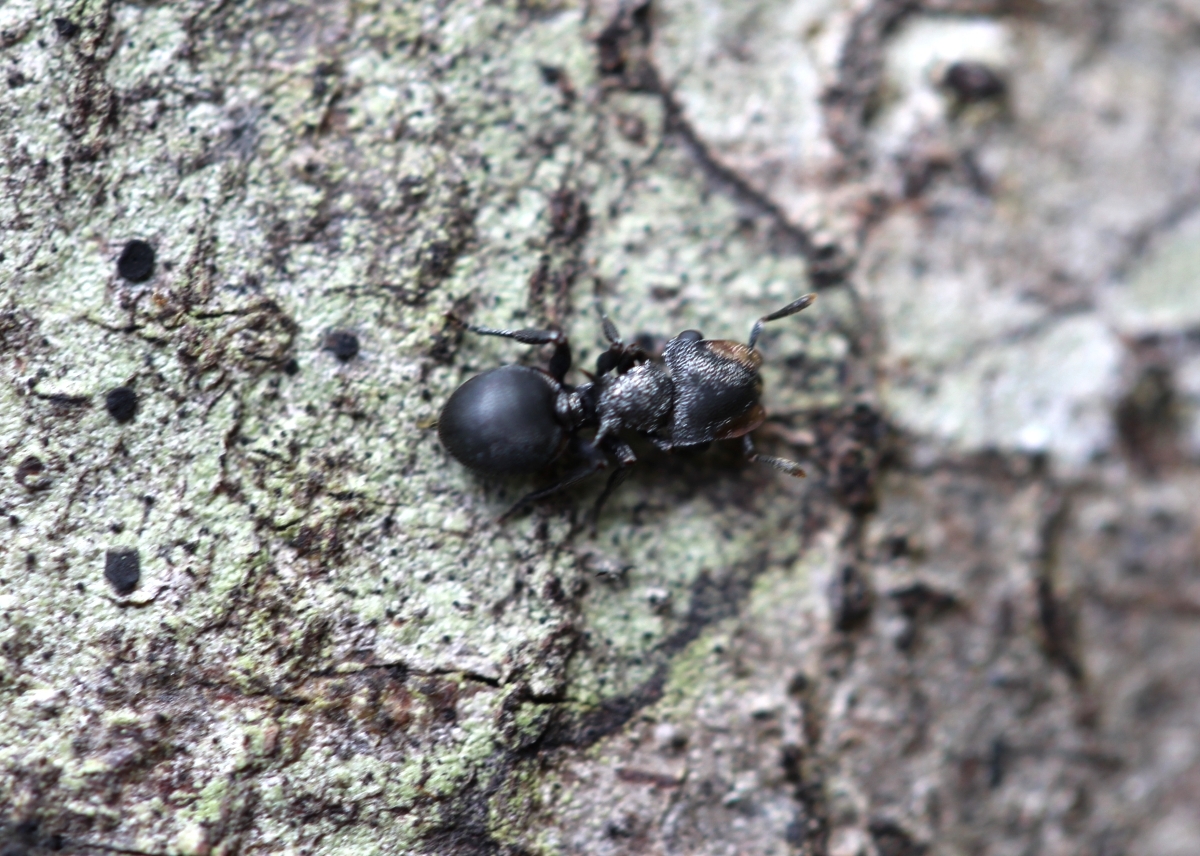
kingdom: Animalia
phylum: Arthropoda
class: Insecta
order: Hymenoptera
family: Formicidae
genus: Cephalotes
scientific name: Cephalotes pusillus
